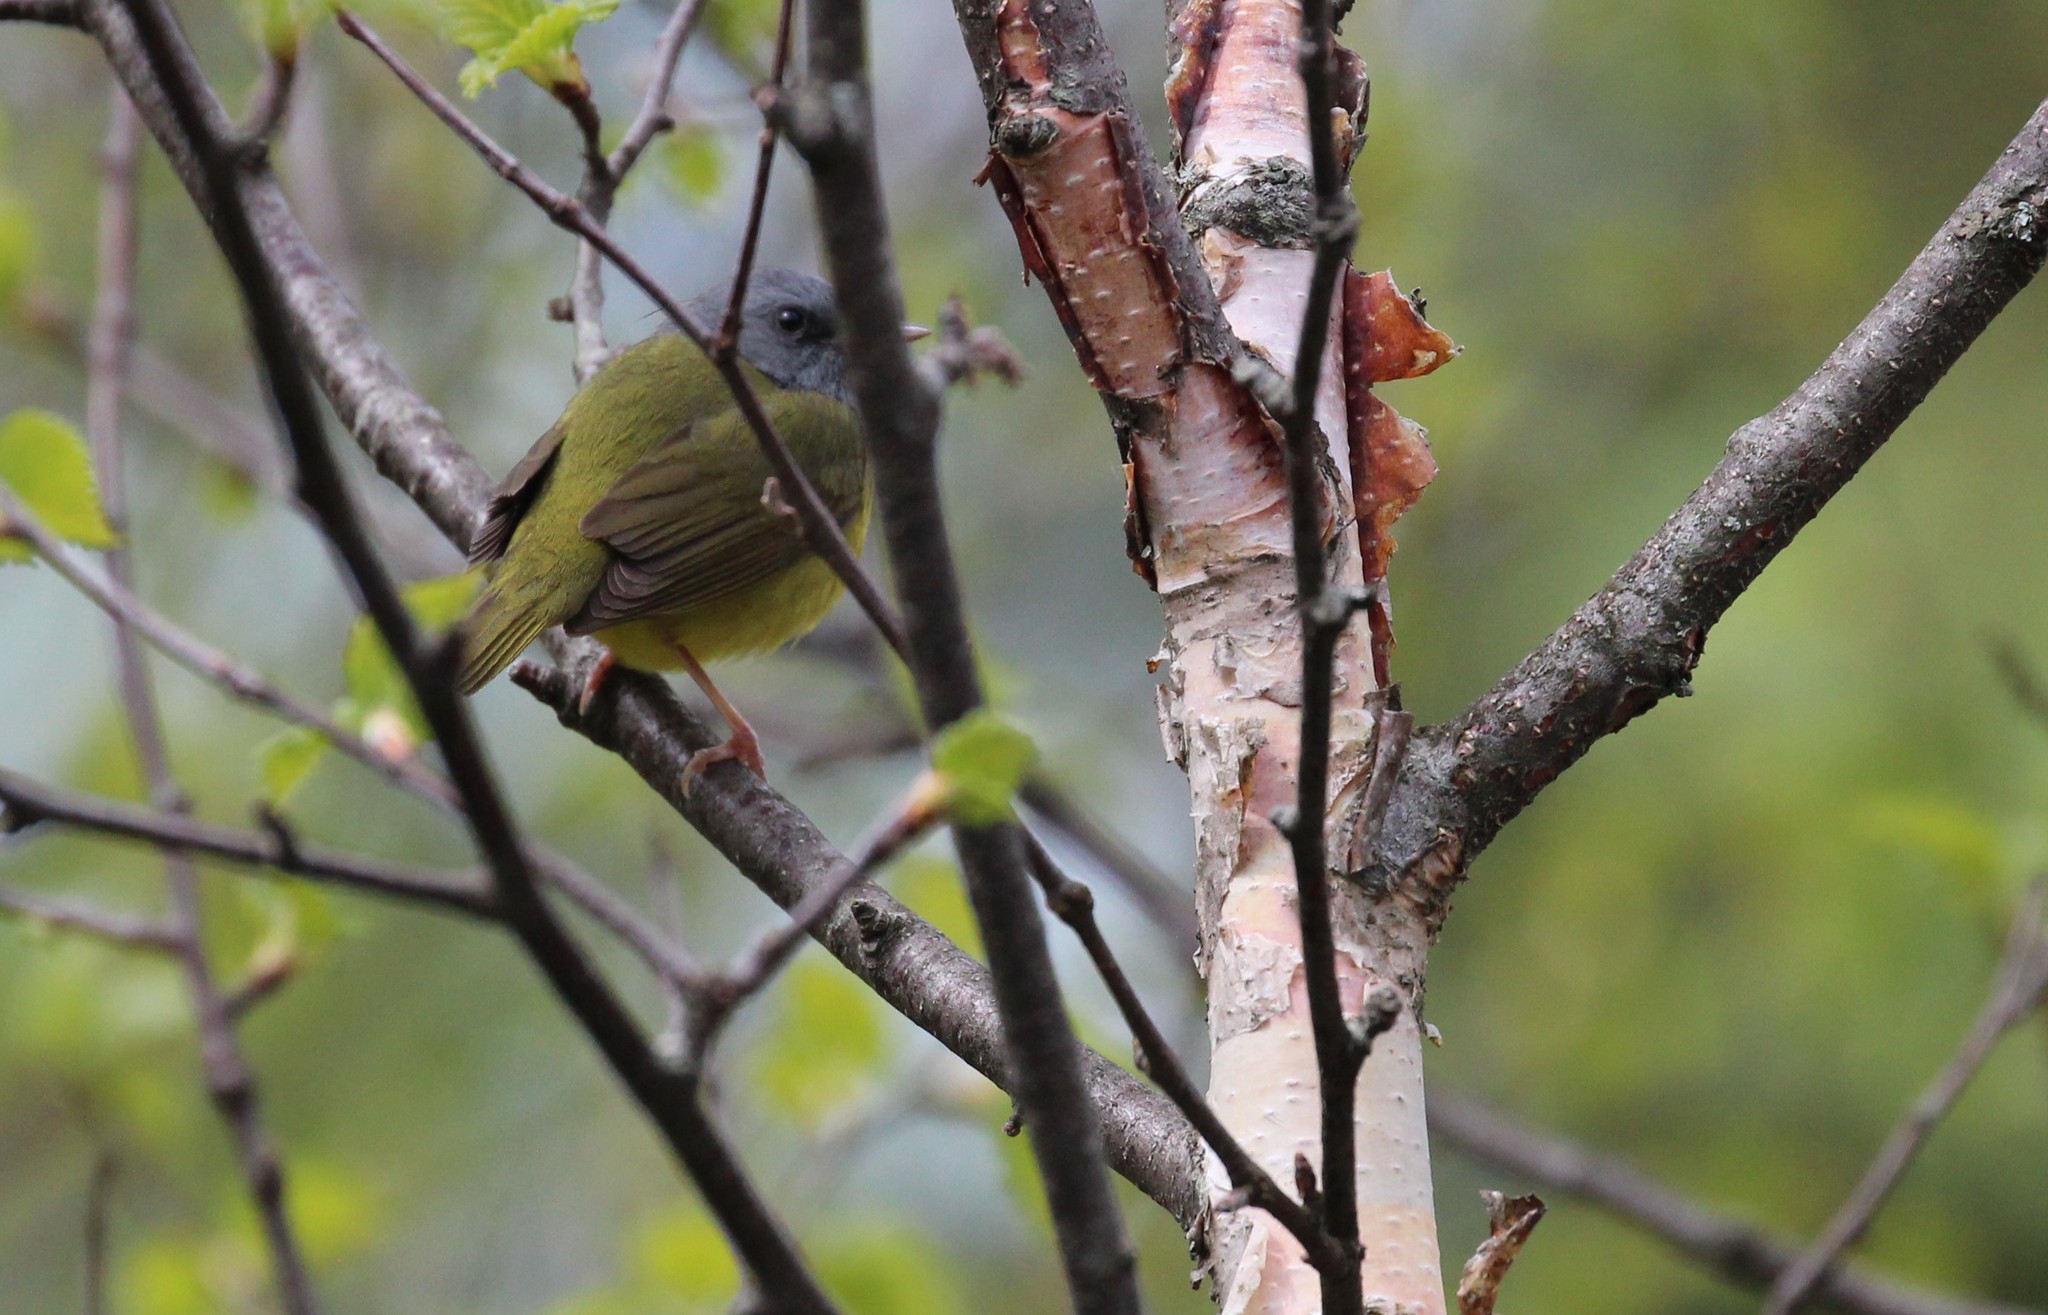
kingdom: Animalia
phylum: Chordata
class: Aves
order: Passeriformes
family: Parulidae
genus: Geothlypis
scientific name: Geothlypis philadelphia
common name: Mourning warbler
